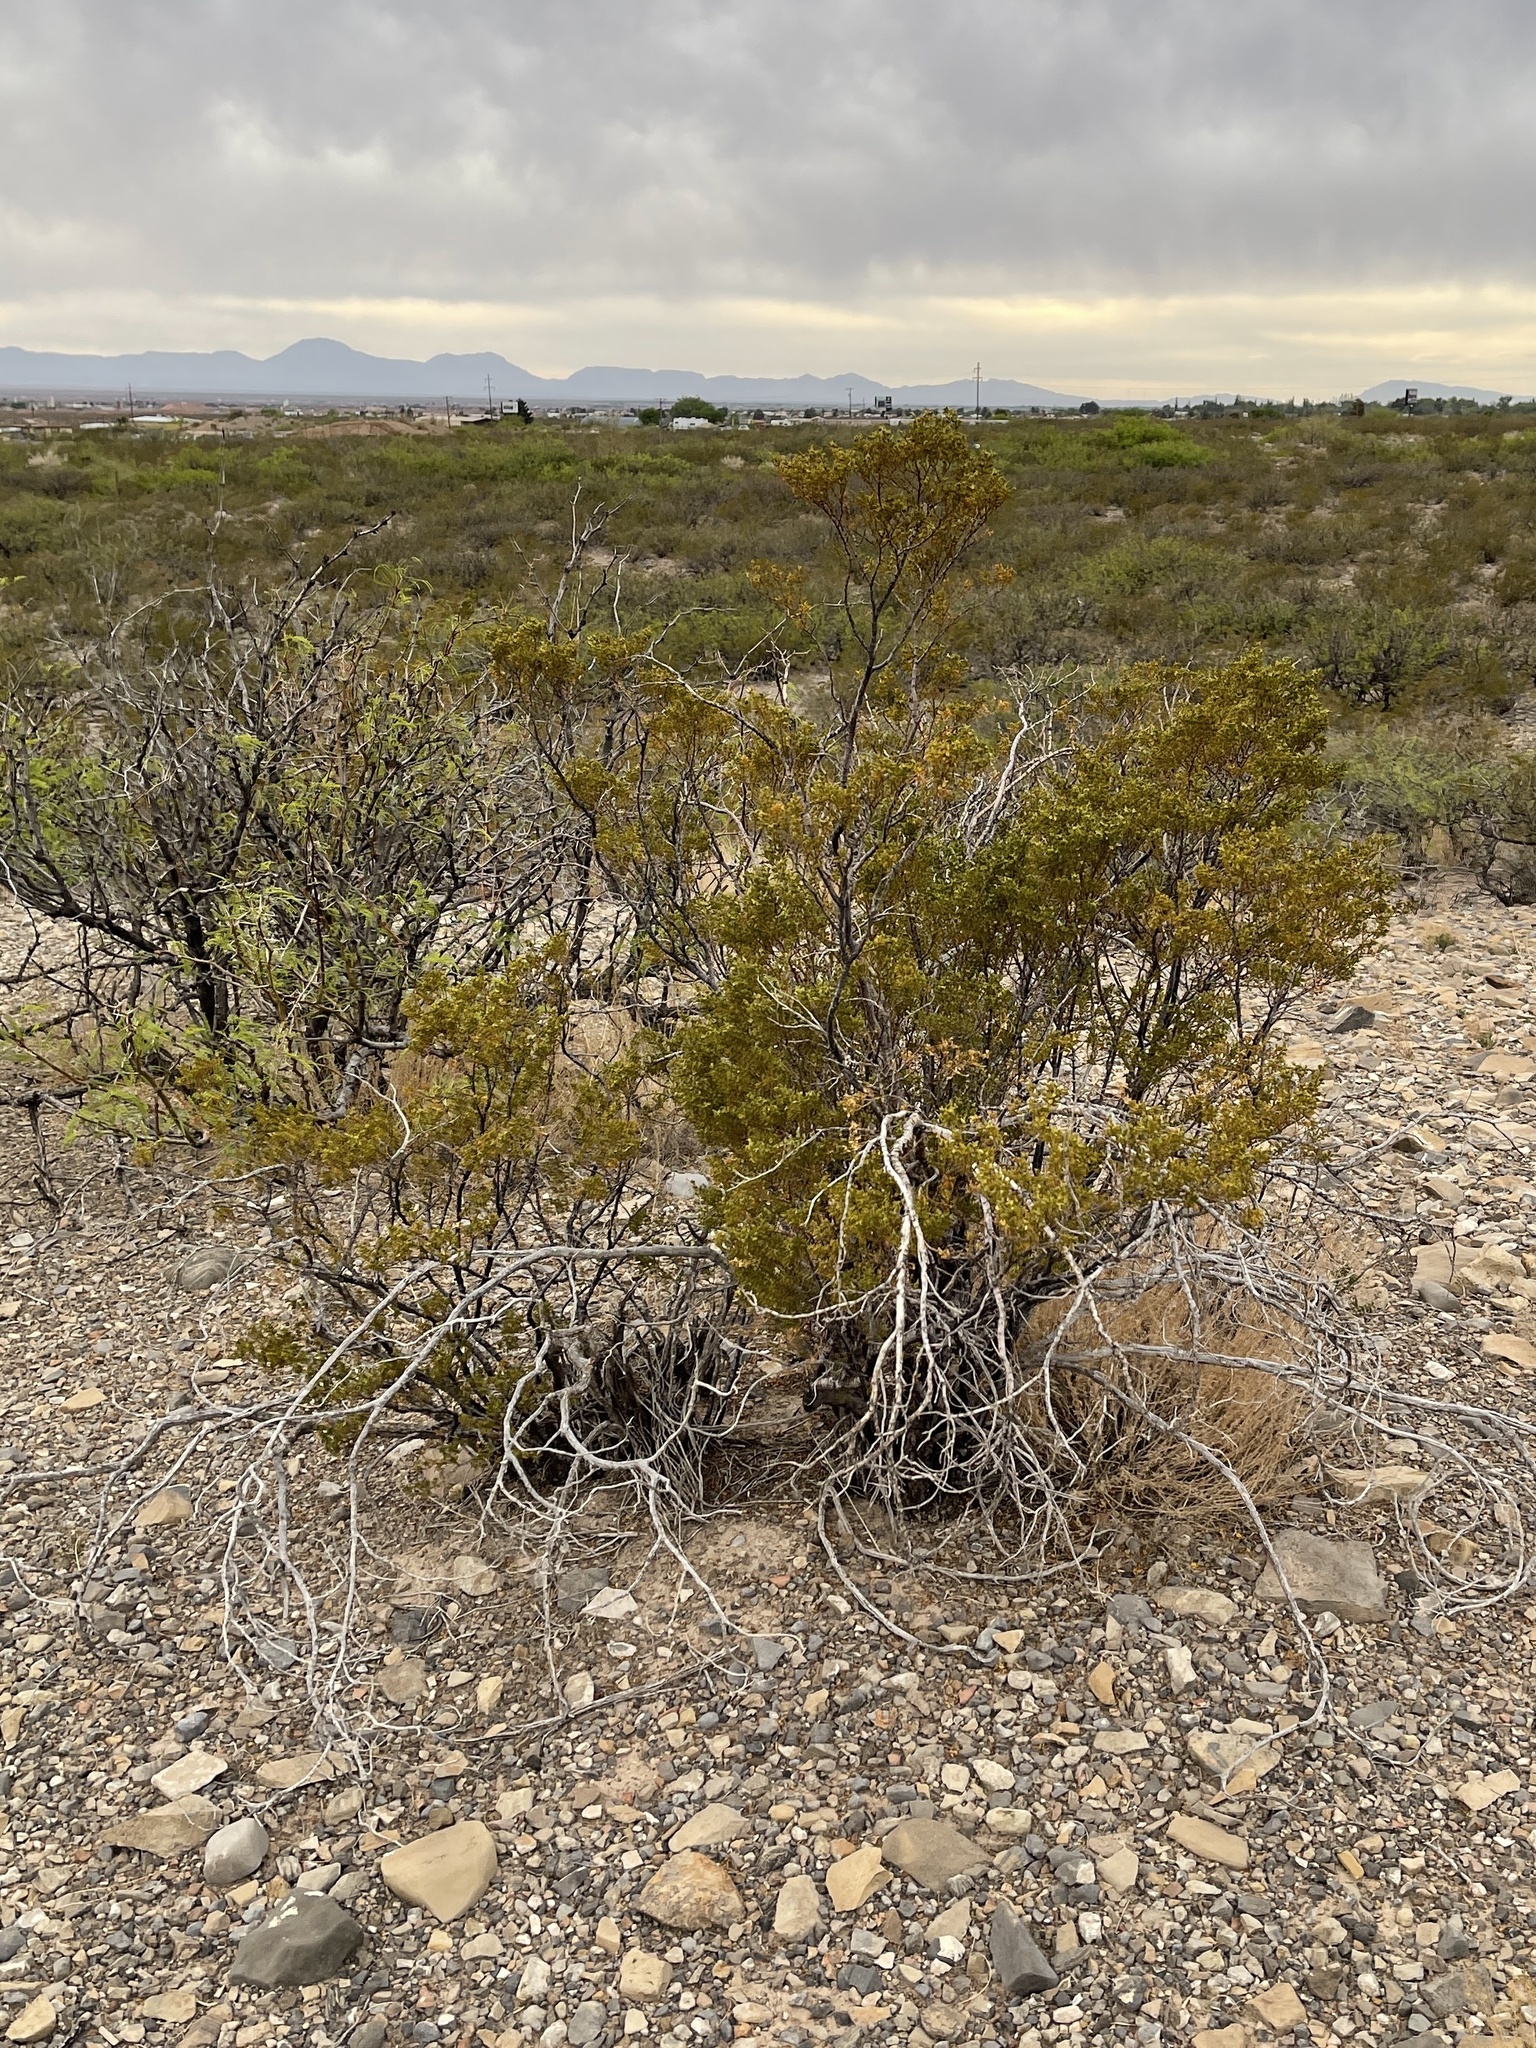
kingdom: Plantae
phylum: Tracheophyta
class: Magnoliopsida
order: Zygophyllales
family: Zygophyllaceae
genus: Larrea
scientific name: Larrea tridentata
